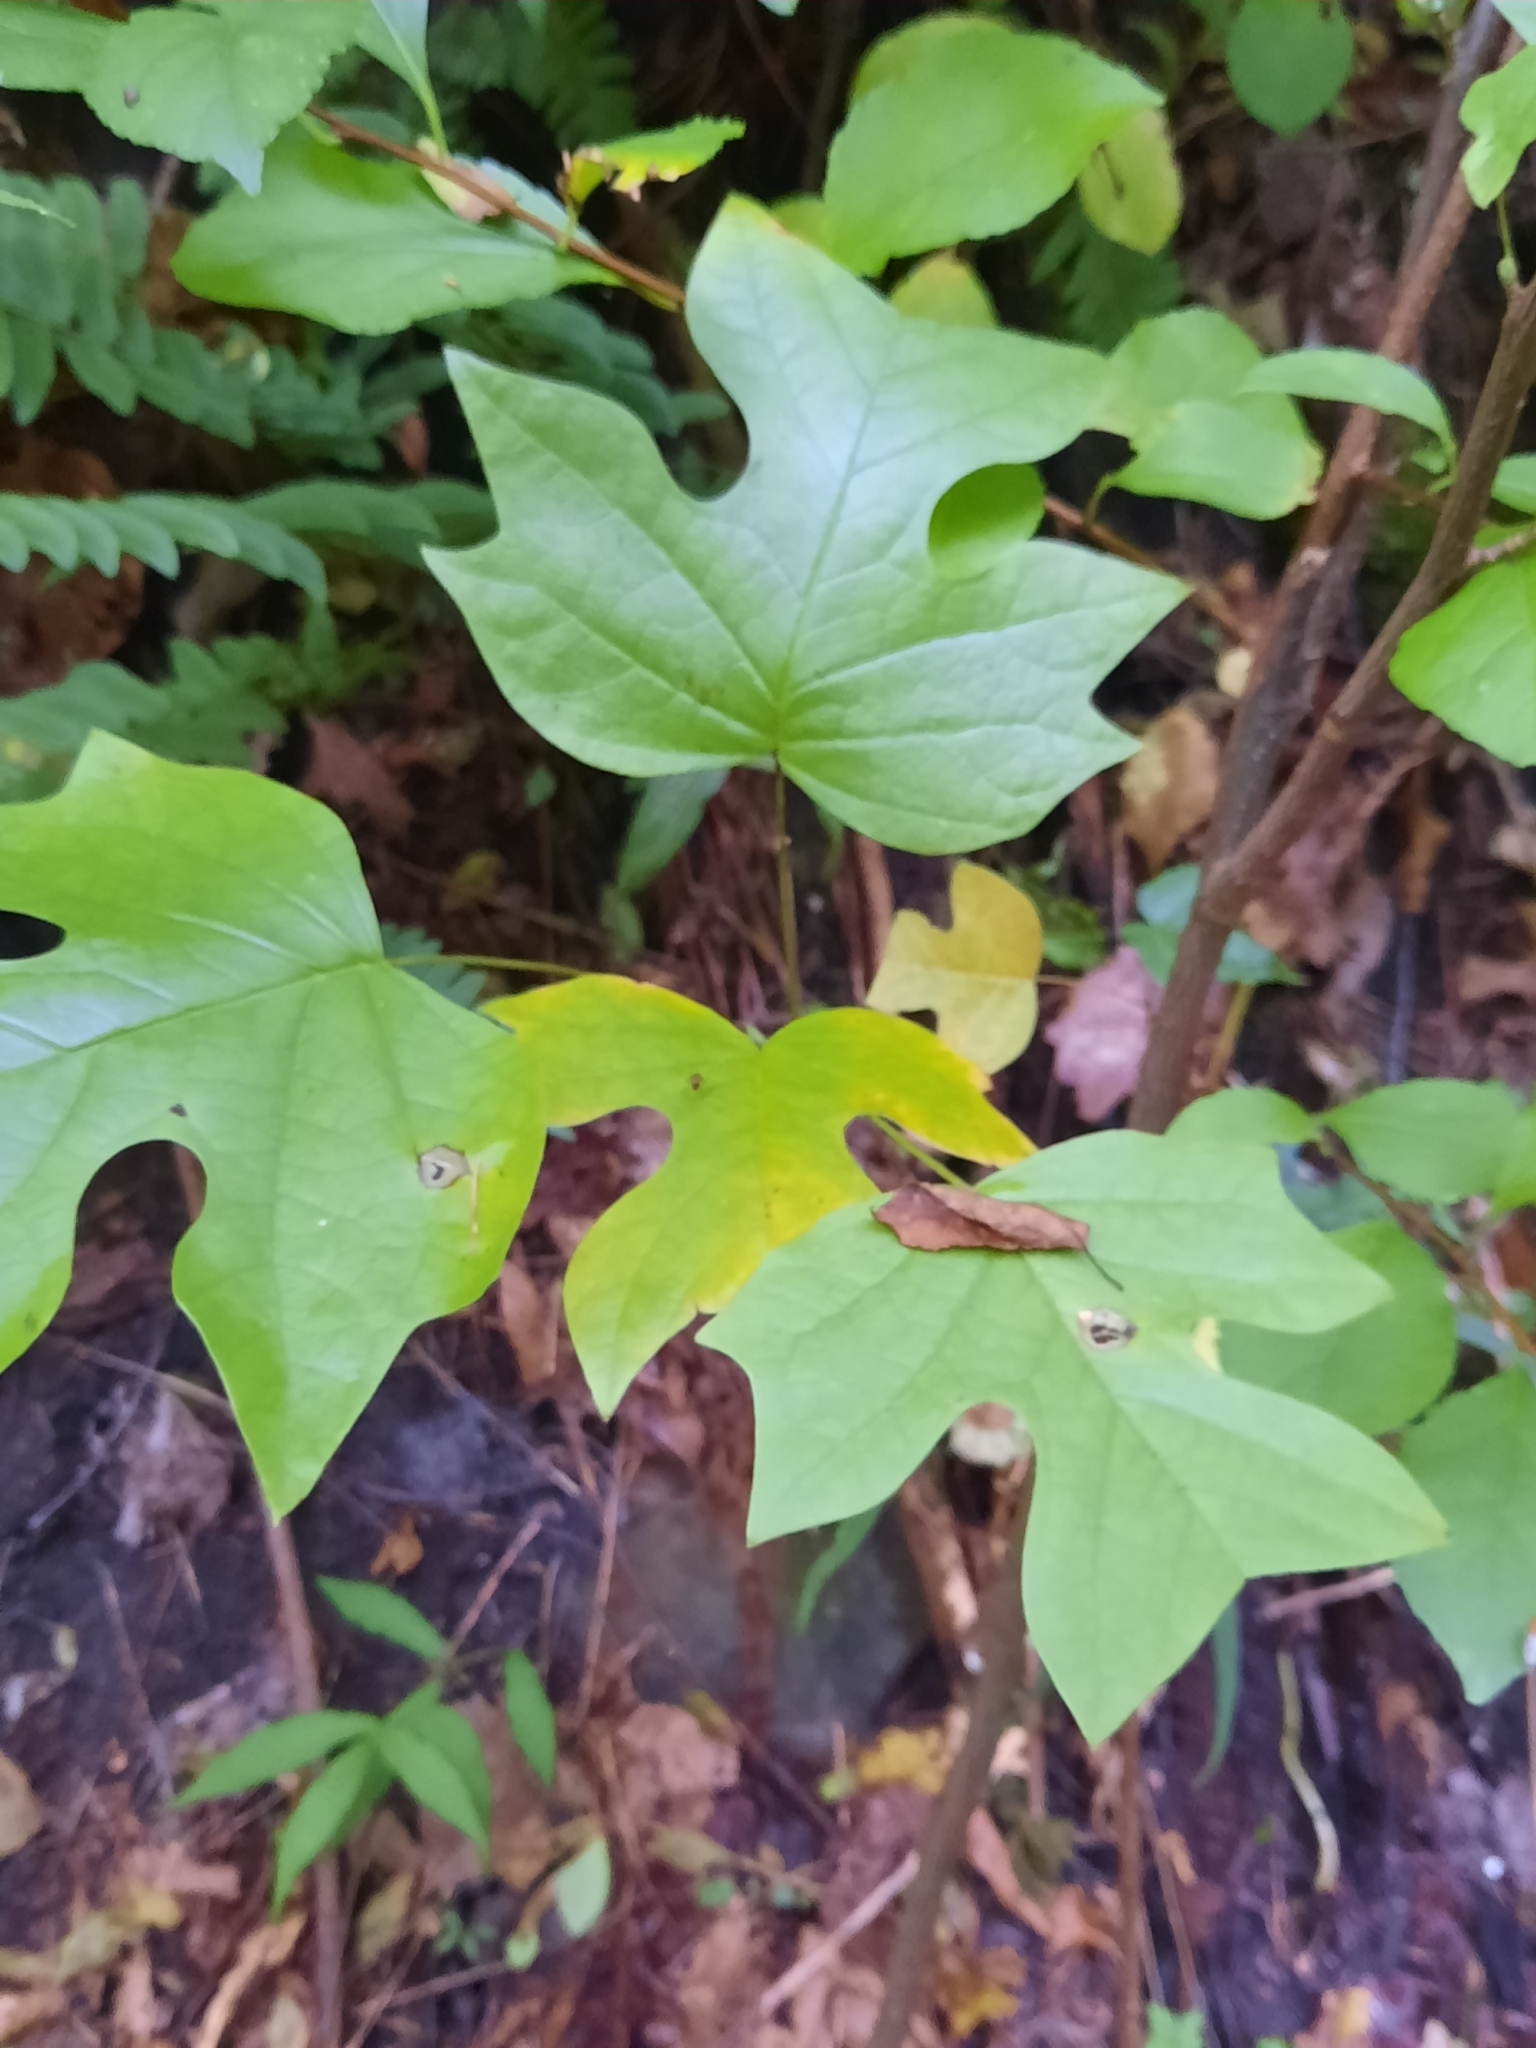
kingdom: Plantae
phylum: Tracheophyta
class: Magnoliopsida
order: Magnoliales
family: Magnoliaceae
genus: Liriodendron
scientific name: Liriodendron tulipifera
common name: Tulip tree
